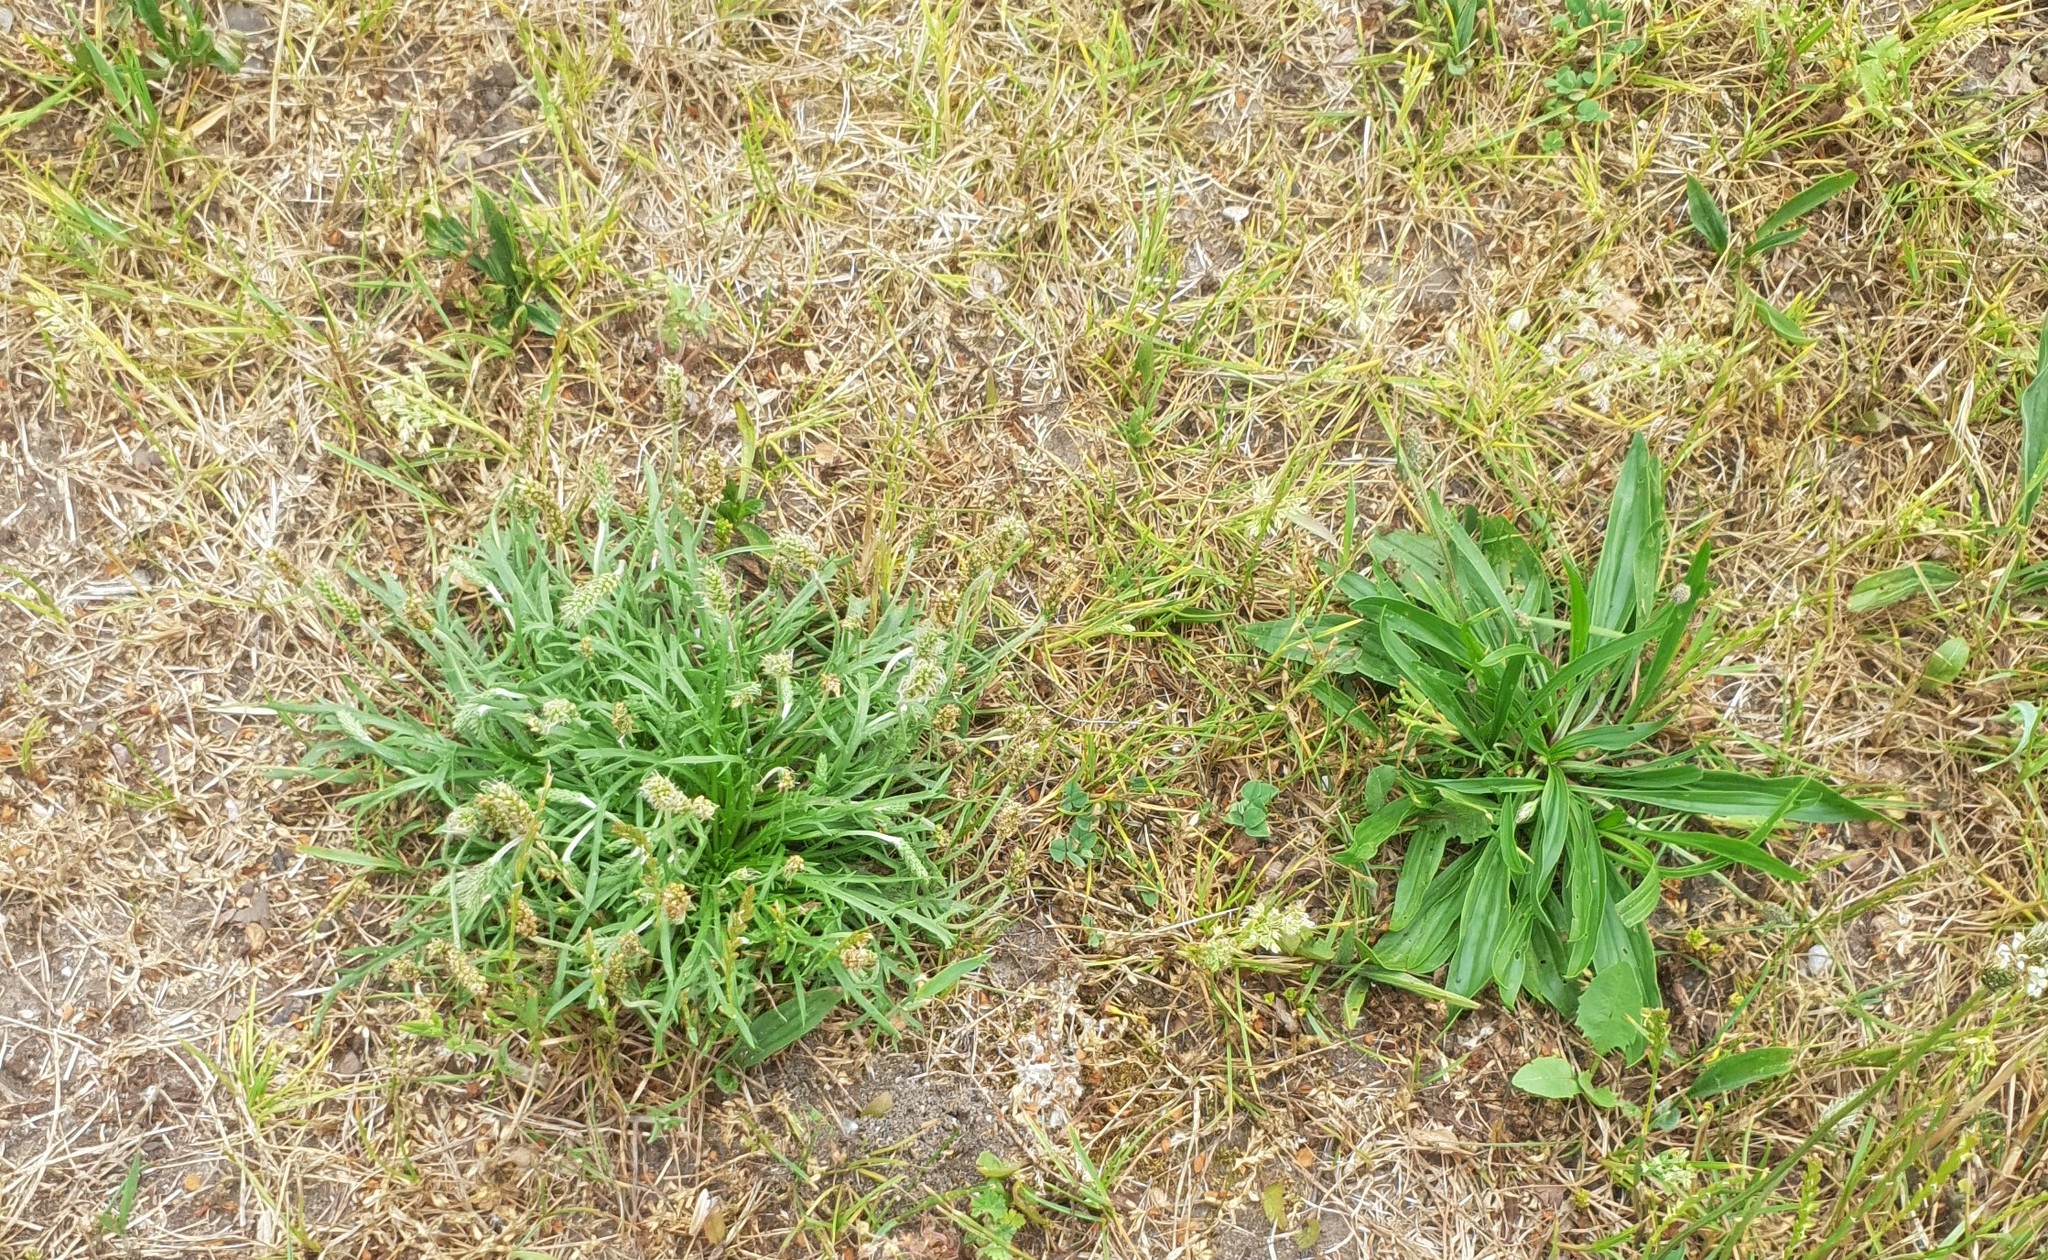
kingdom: Plantae
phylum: Tracheophyta
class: Magnoliopsida
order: Lamiales
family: Plantaginaceae
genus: Plantago
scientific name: Plantago coronopus
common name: Buck's-horn plantain
